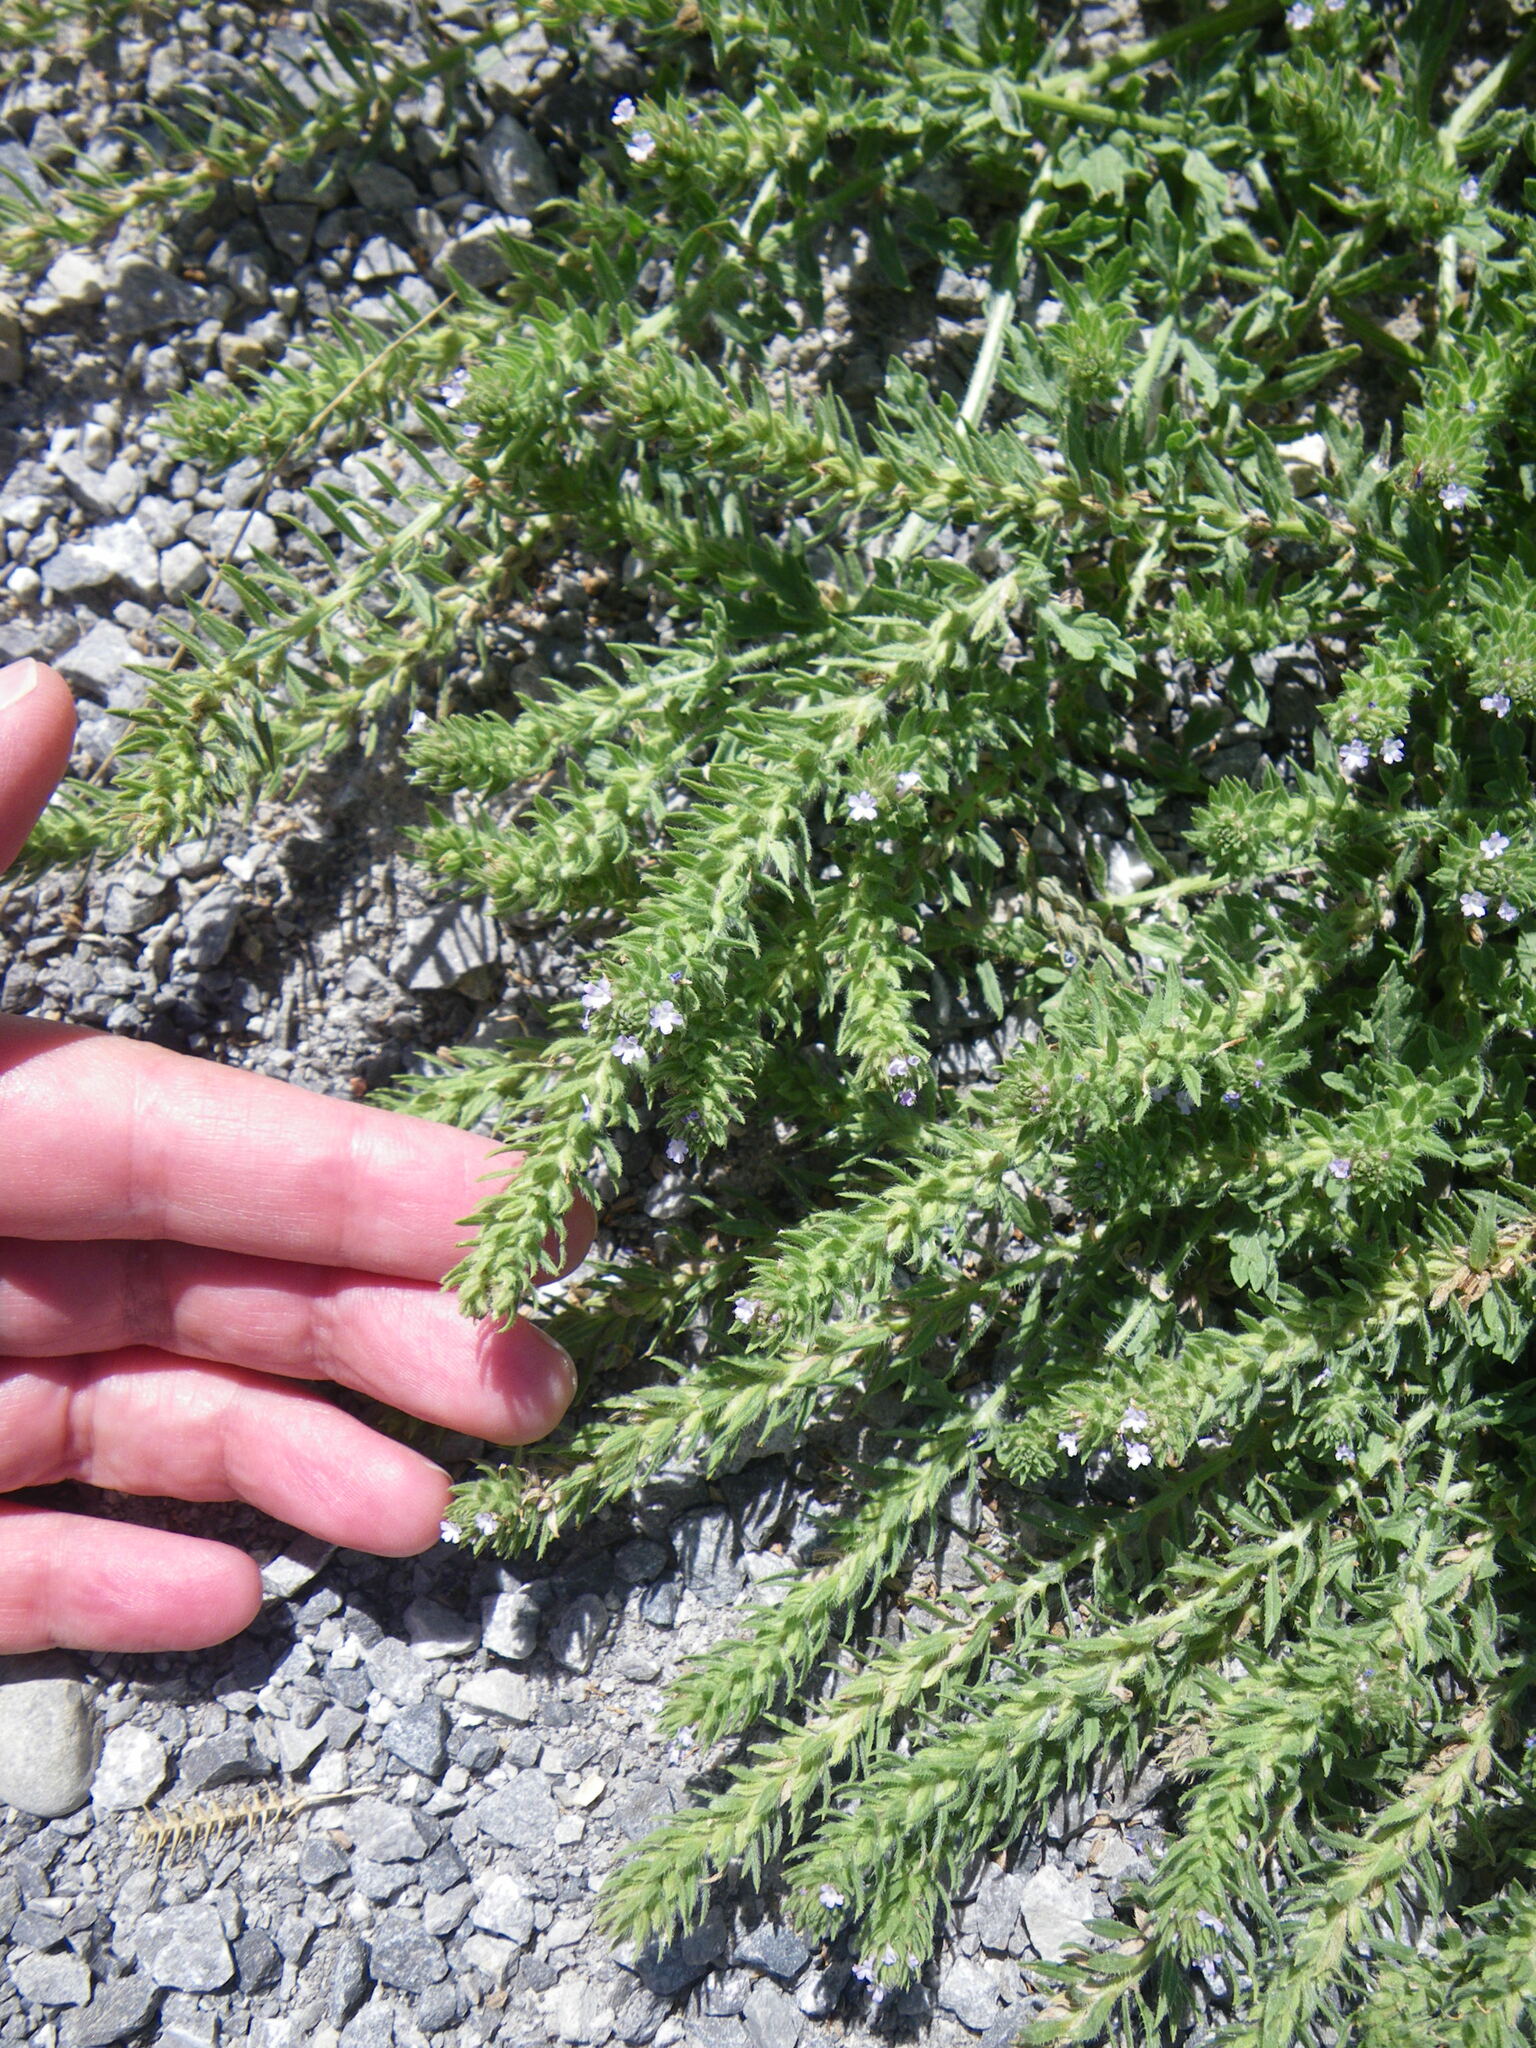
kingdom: Plantae
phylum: Tracheophyta
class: Magnoliopsida
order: Lamiales
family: Verbenaceae
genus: Verbena
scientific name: Verbena bracteata
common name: Bracted vervain
